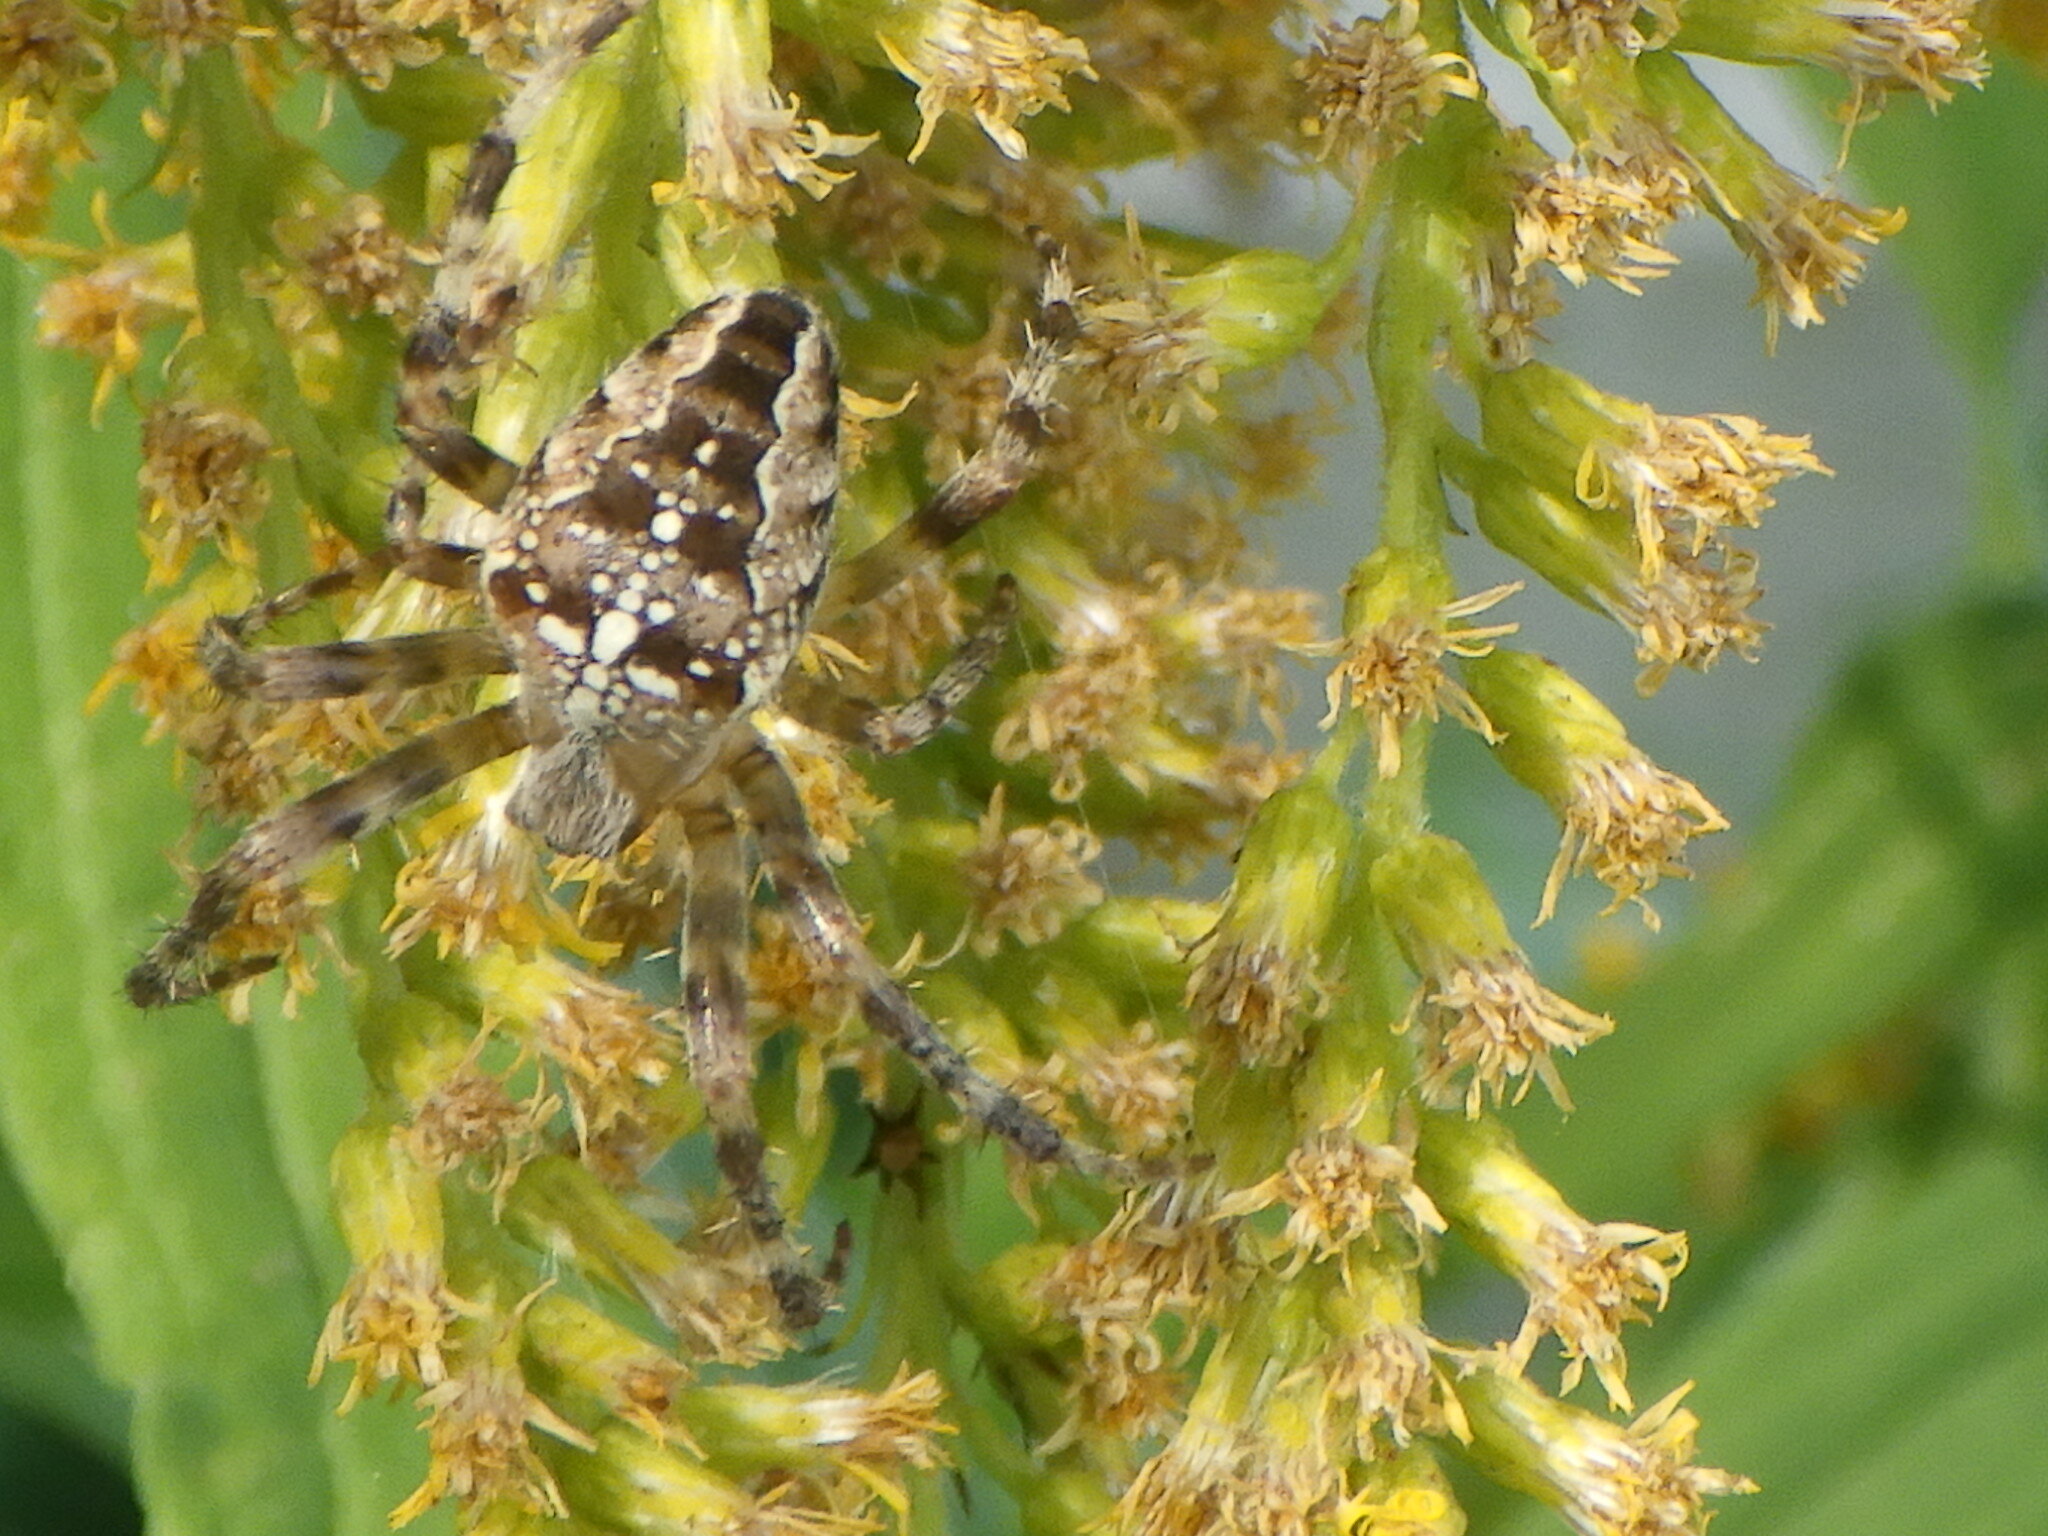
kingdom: Animalia
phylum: Arthropoda
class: Arachnida
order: Araneae
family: Araneidae
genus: Araneus
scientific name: Araneus diadematus
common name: Cross orbweaver
